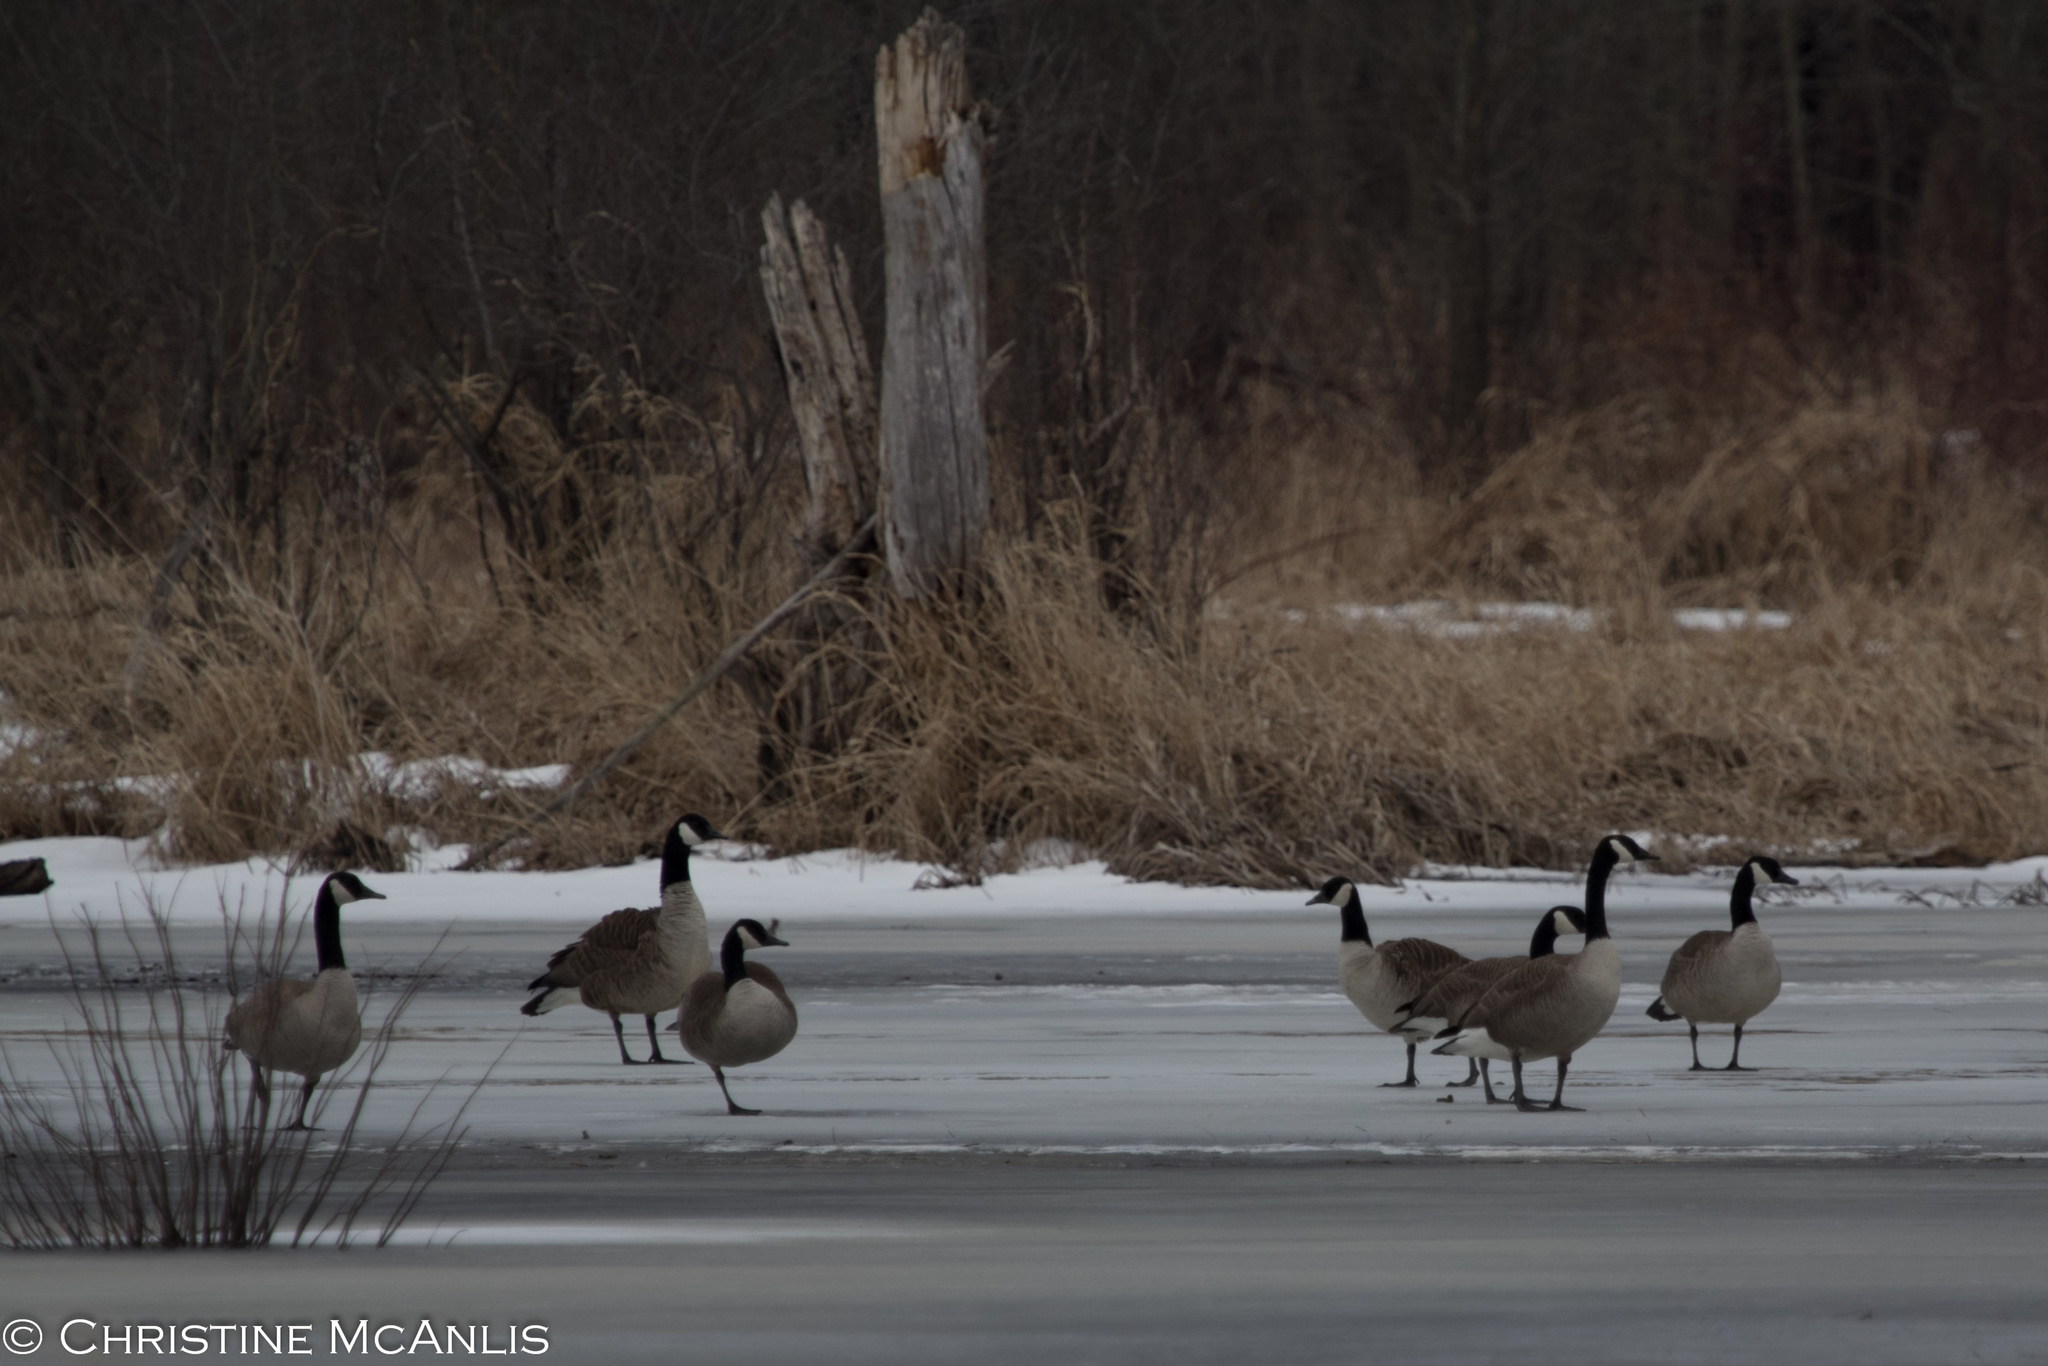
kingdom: Animalia
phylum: Chordata
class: Aves
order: Anseriformes
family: Anatidae
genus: Branta
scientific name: Branta canadensis
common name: Canada goose
